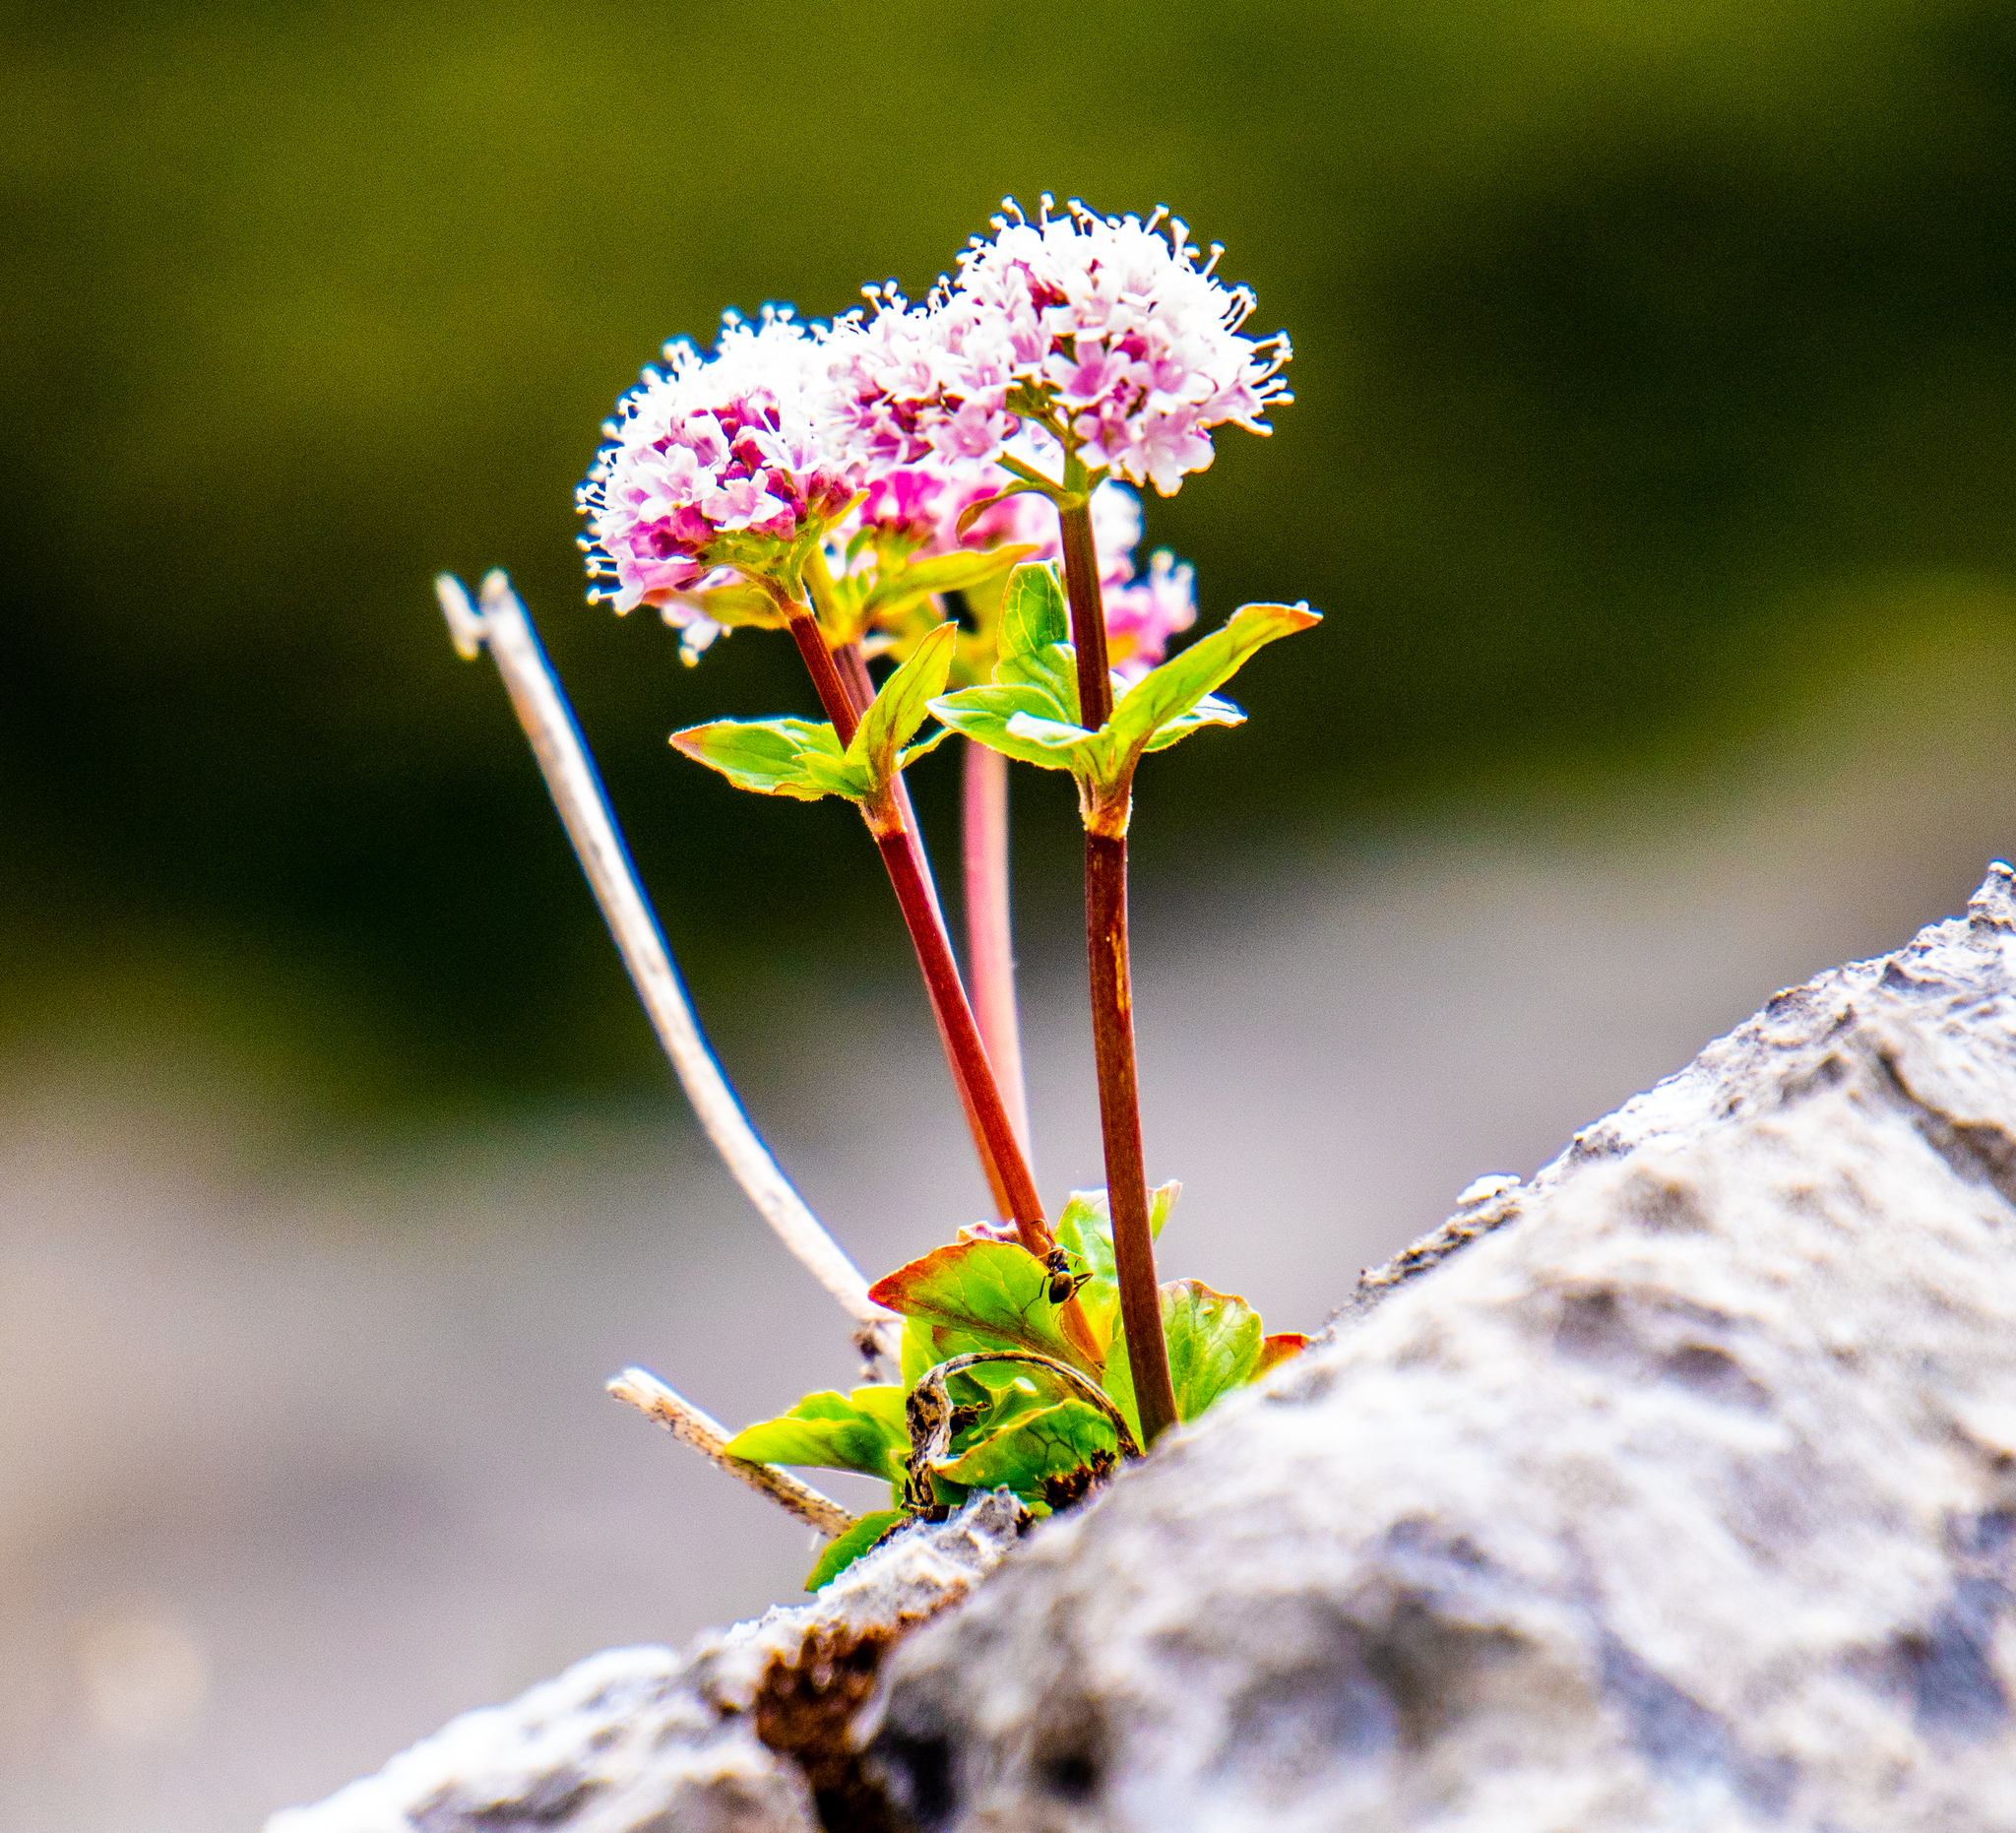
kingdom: Plantae
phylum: Tracheophyta
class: Magnoliopsida
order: Dipsacales
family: Caprifoliaceae
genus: Valeriana
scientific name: Valeriana tripteris
